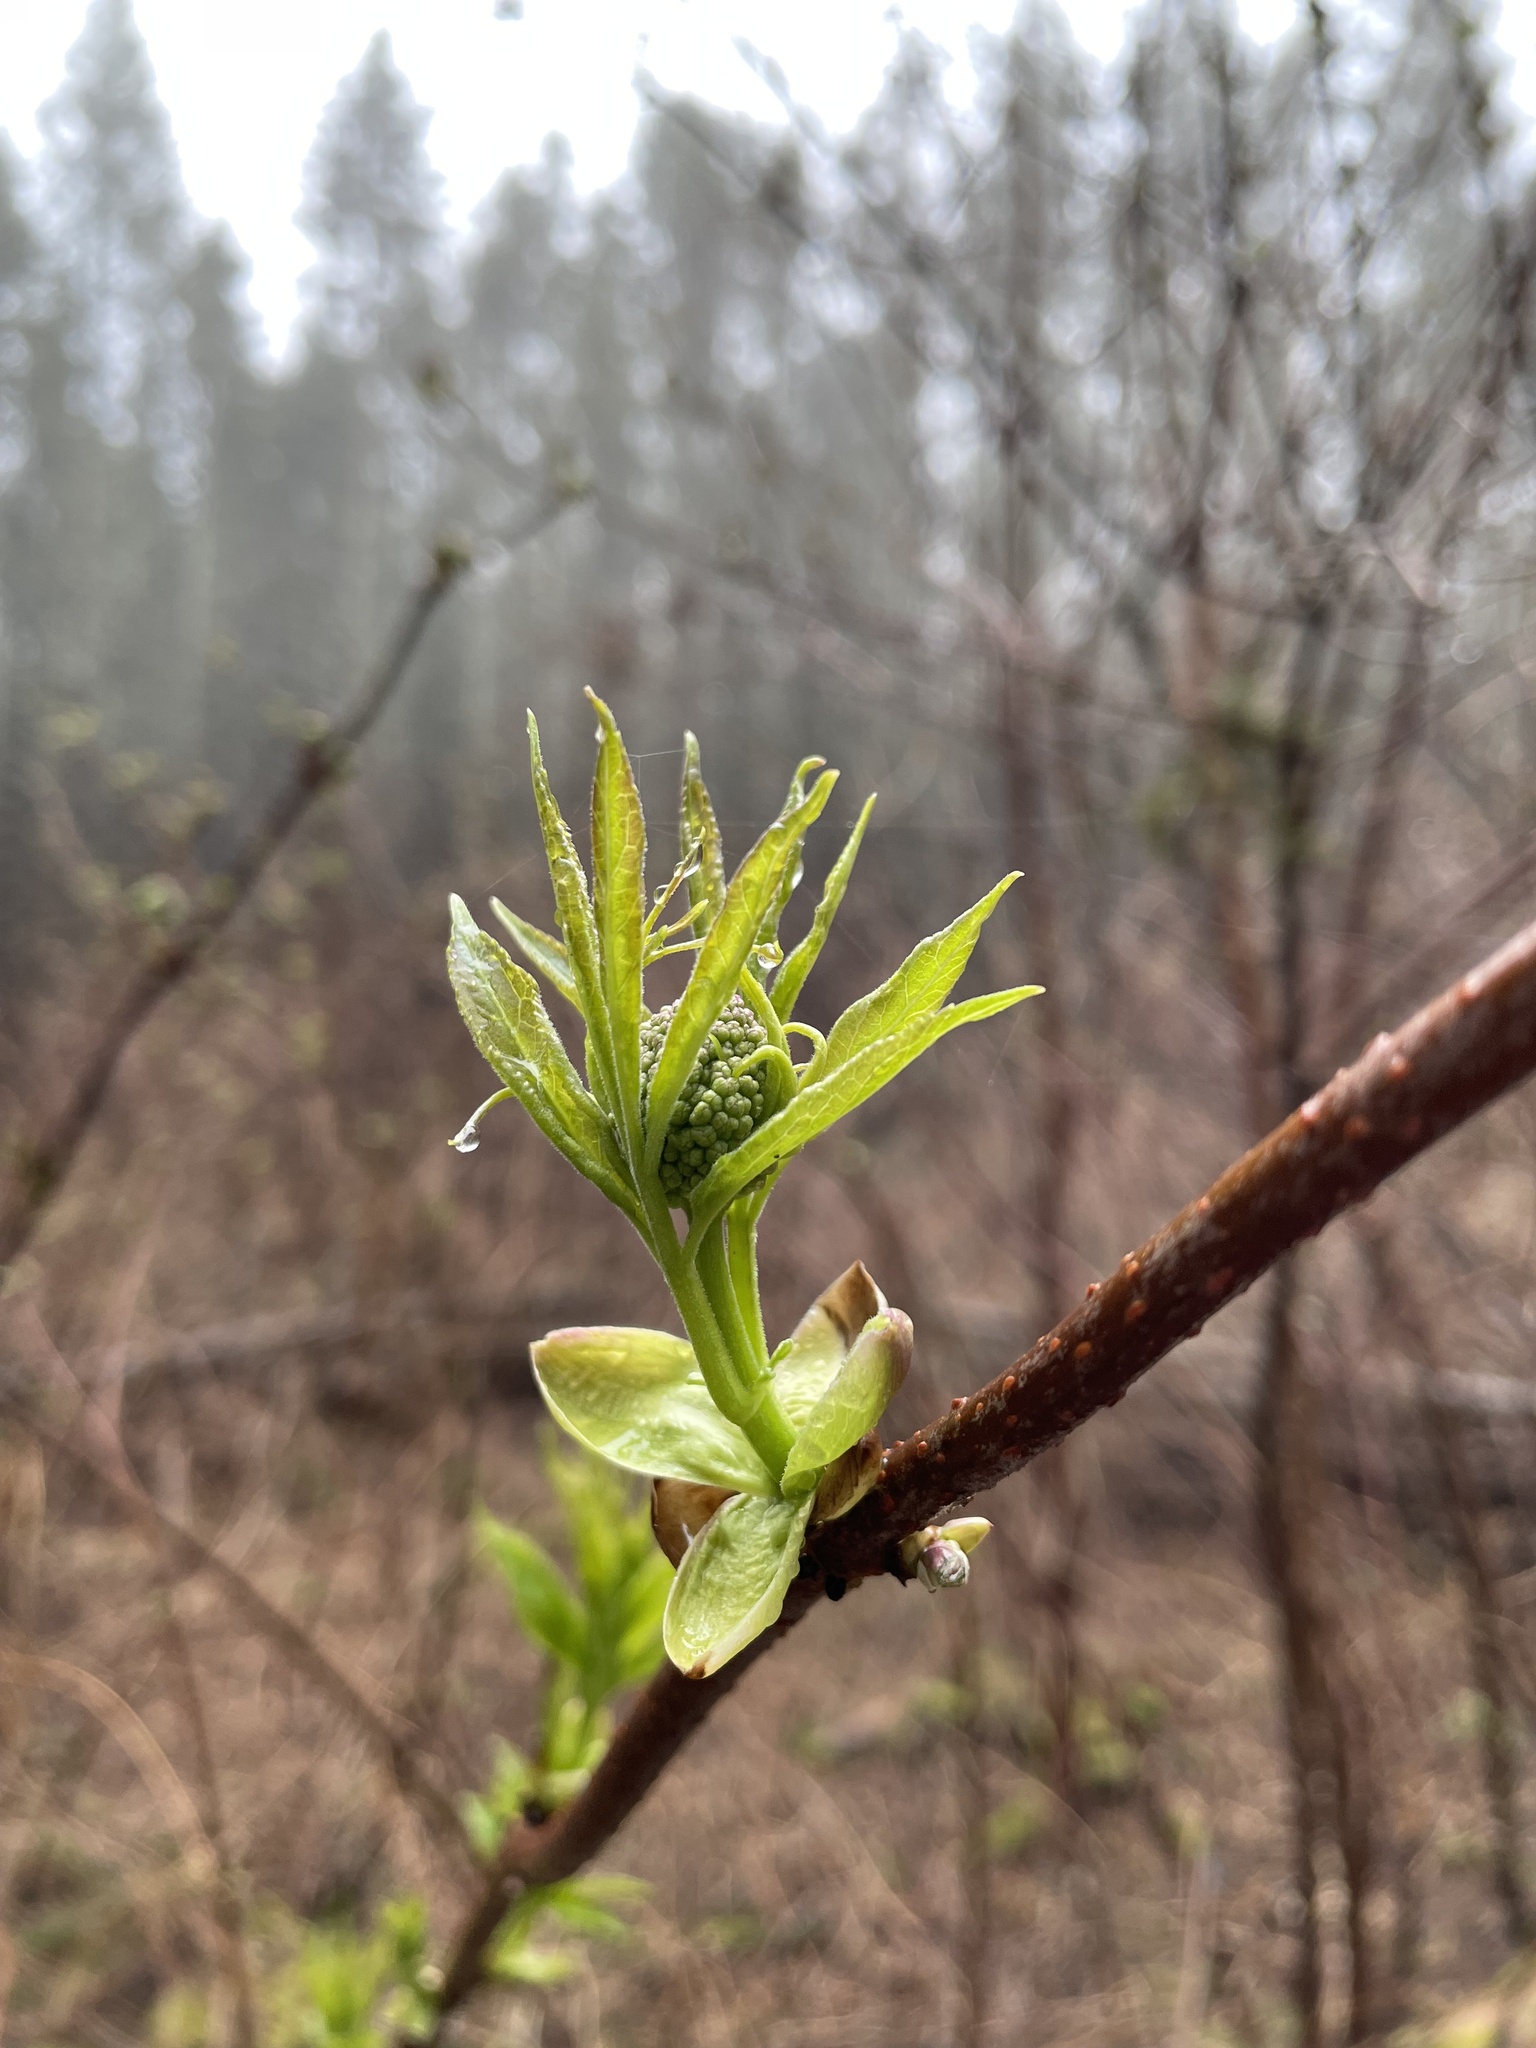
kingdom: Plantae
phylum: Tracheophyta
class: Magnoliopsida
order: Dipsacales
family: Viburnaceae
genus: Sambucus
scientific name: Sambucus racemosa
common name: Red-berried elder
